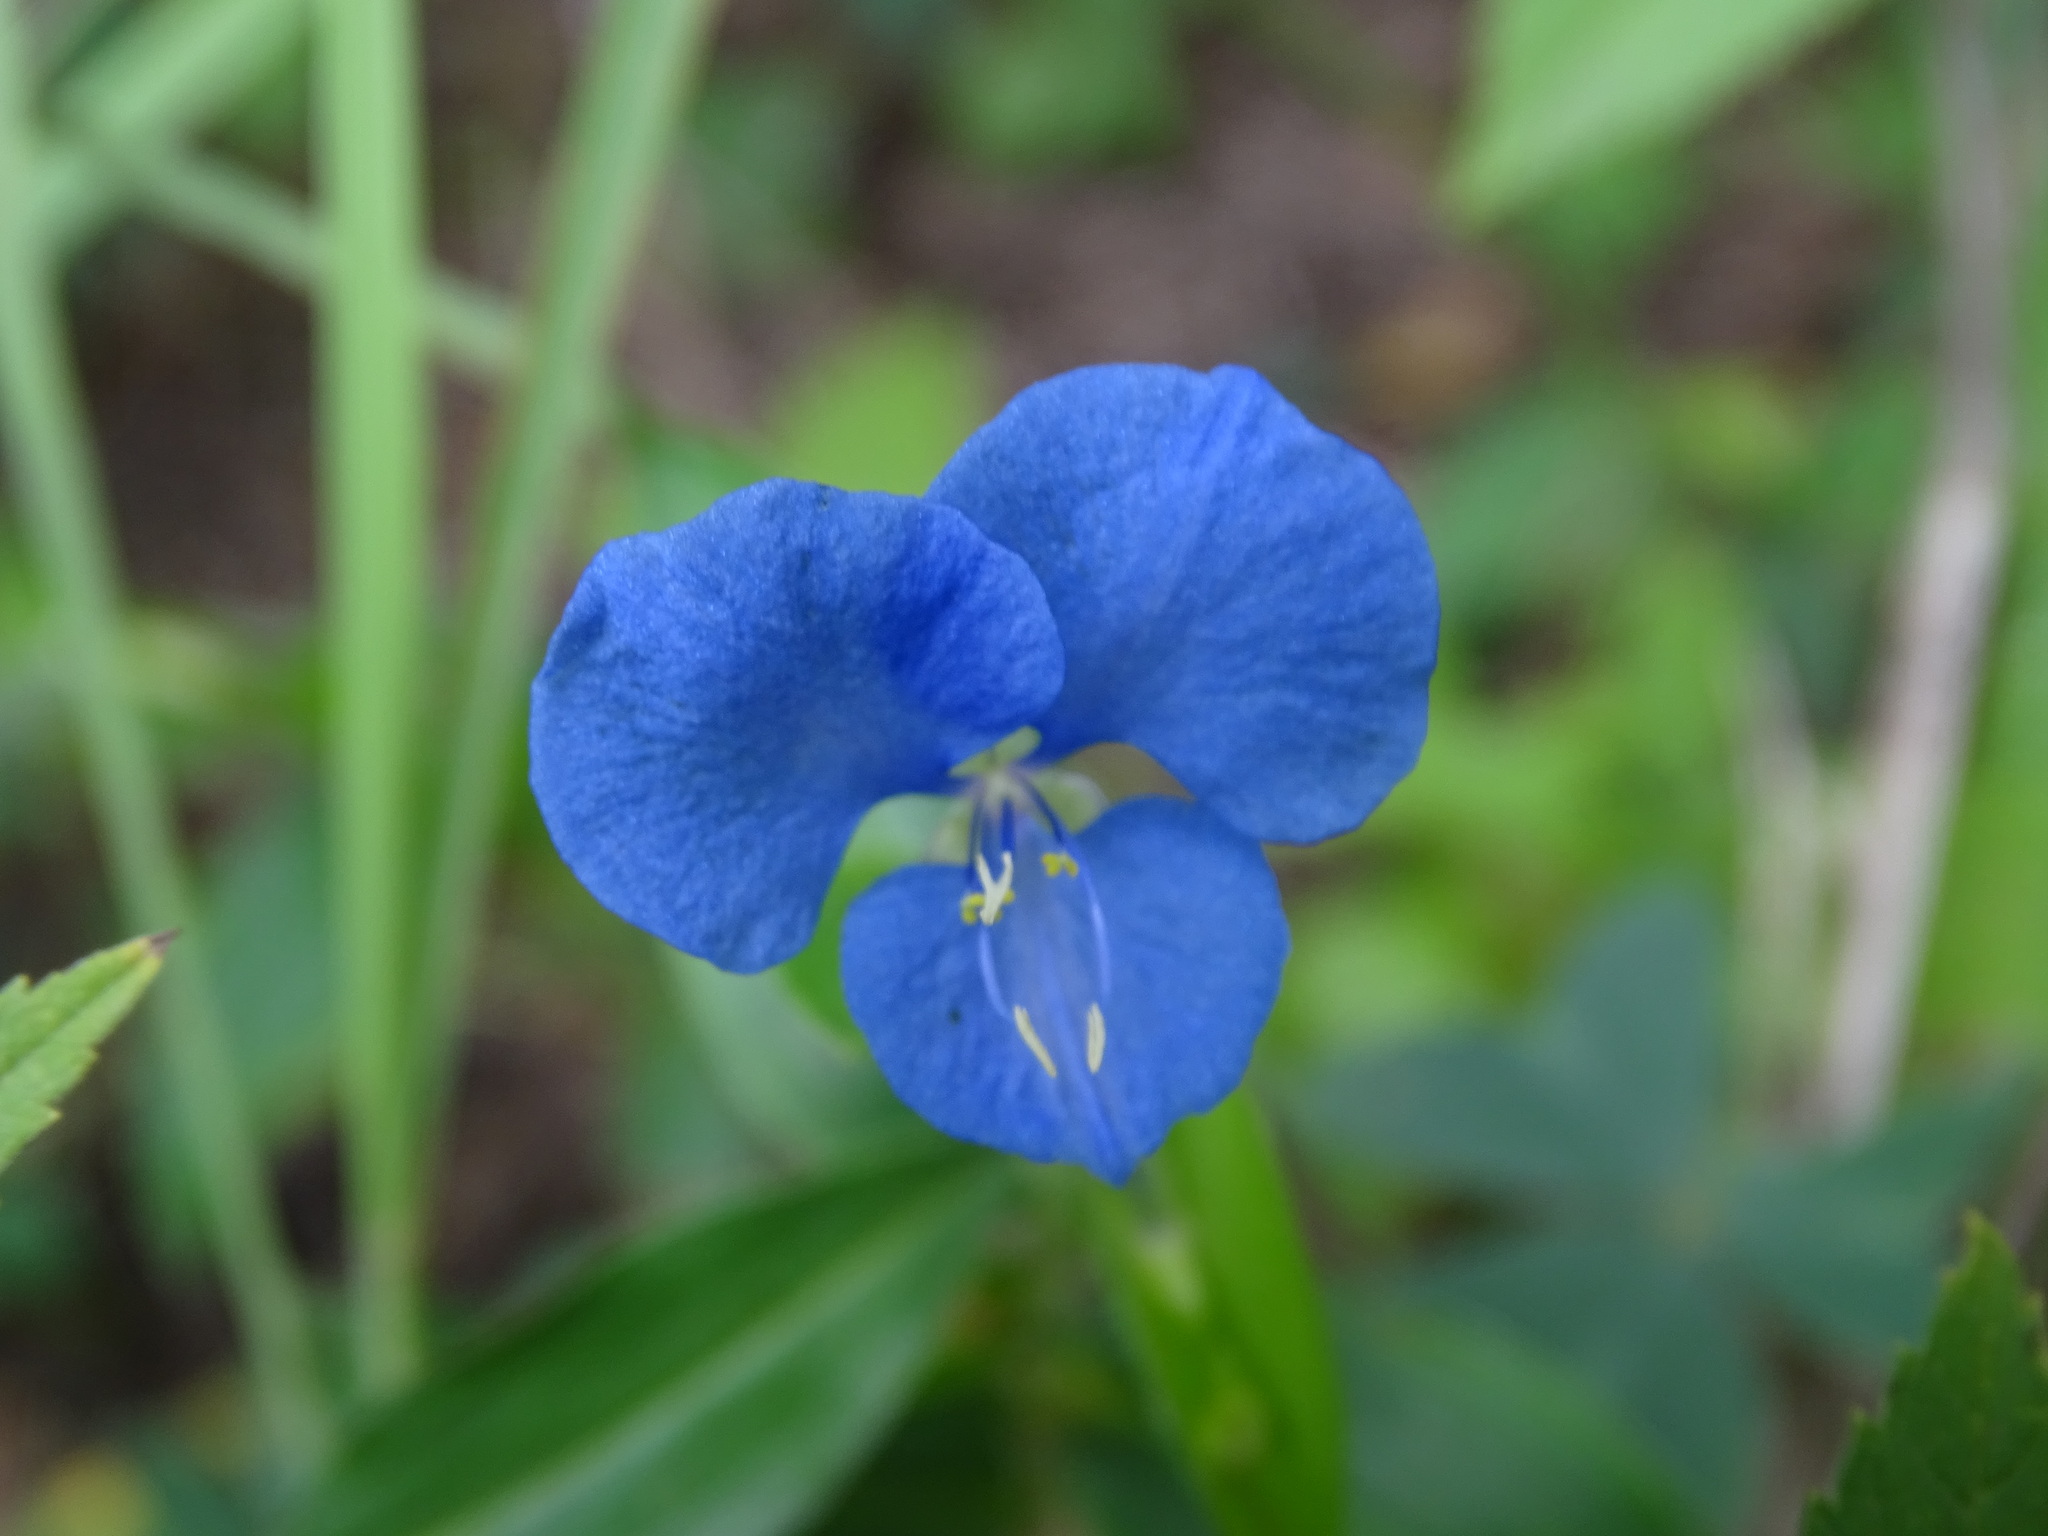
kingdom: Plantae
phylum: Tracheophyta
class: Liliopsida
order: Commelinales
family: Commelinaceae
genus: Commelina
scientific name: Commelina diffusa
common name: Climbing dayflower
